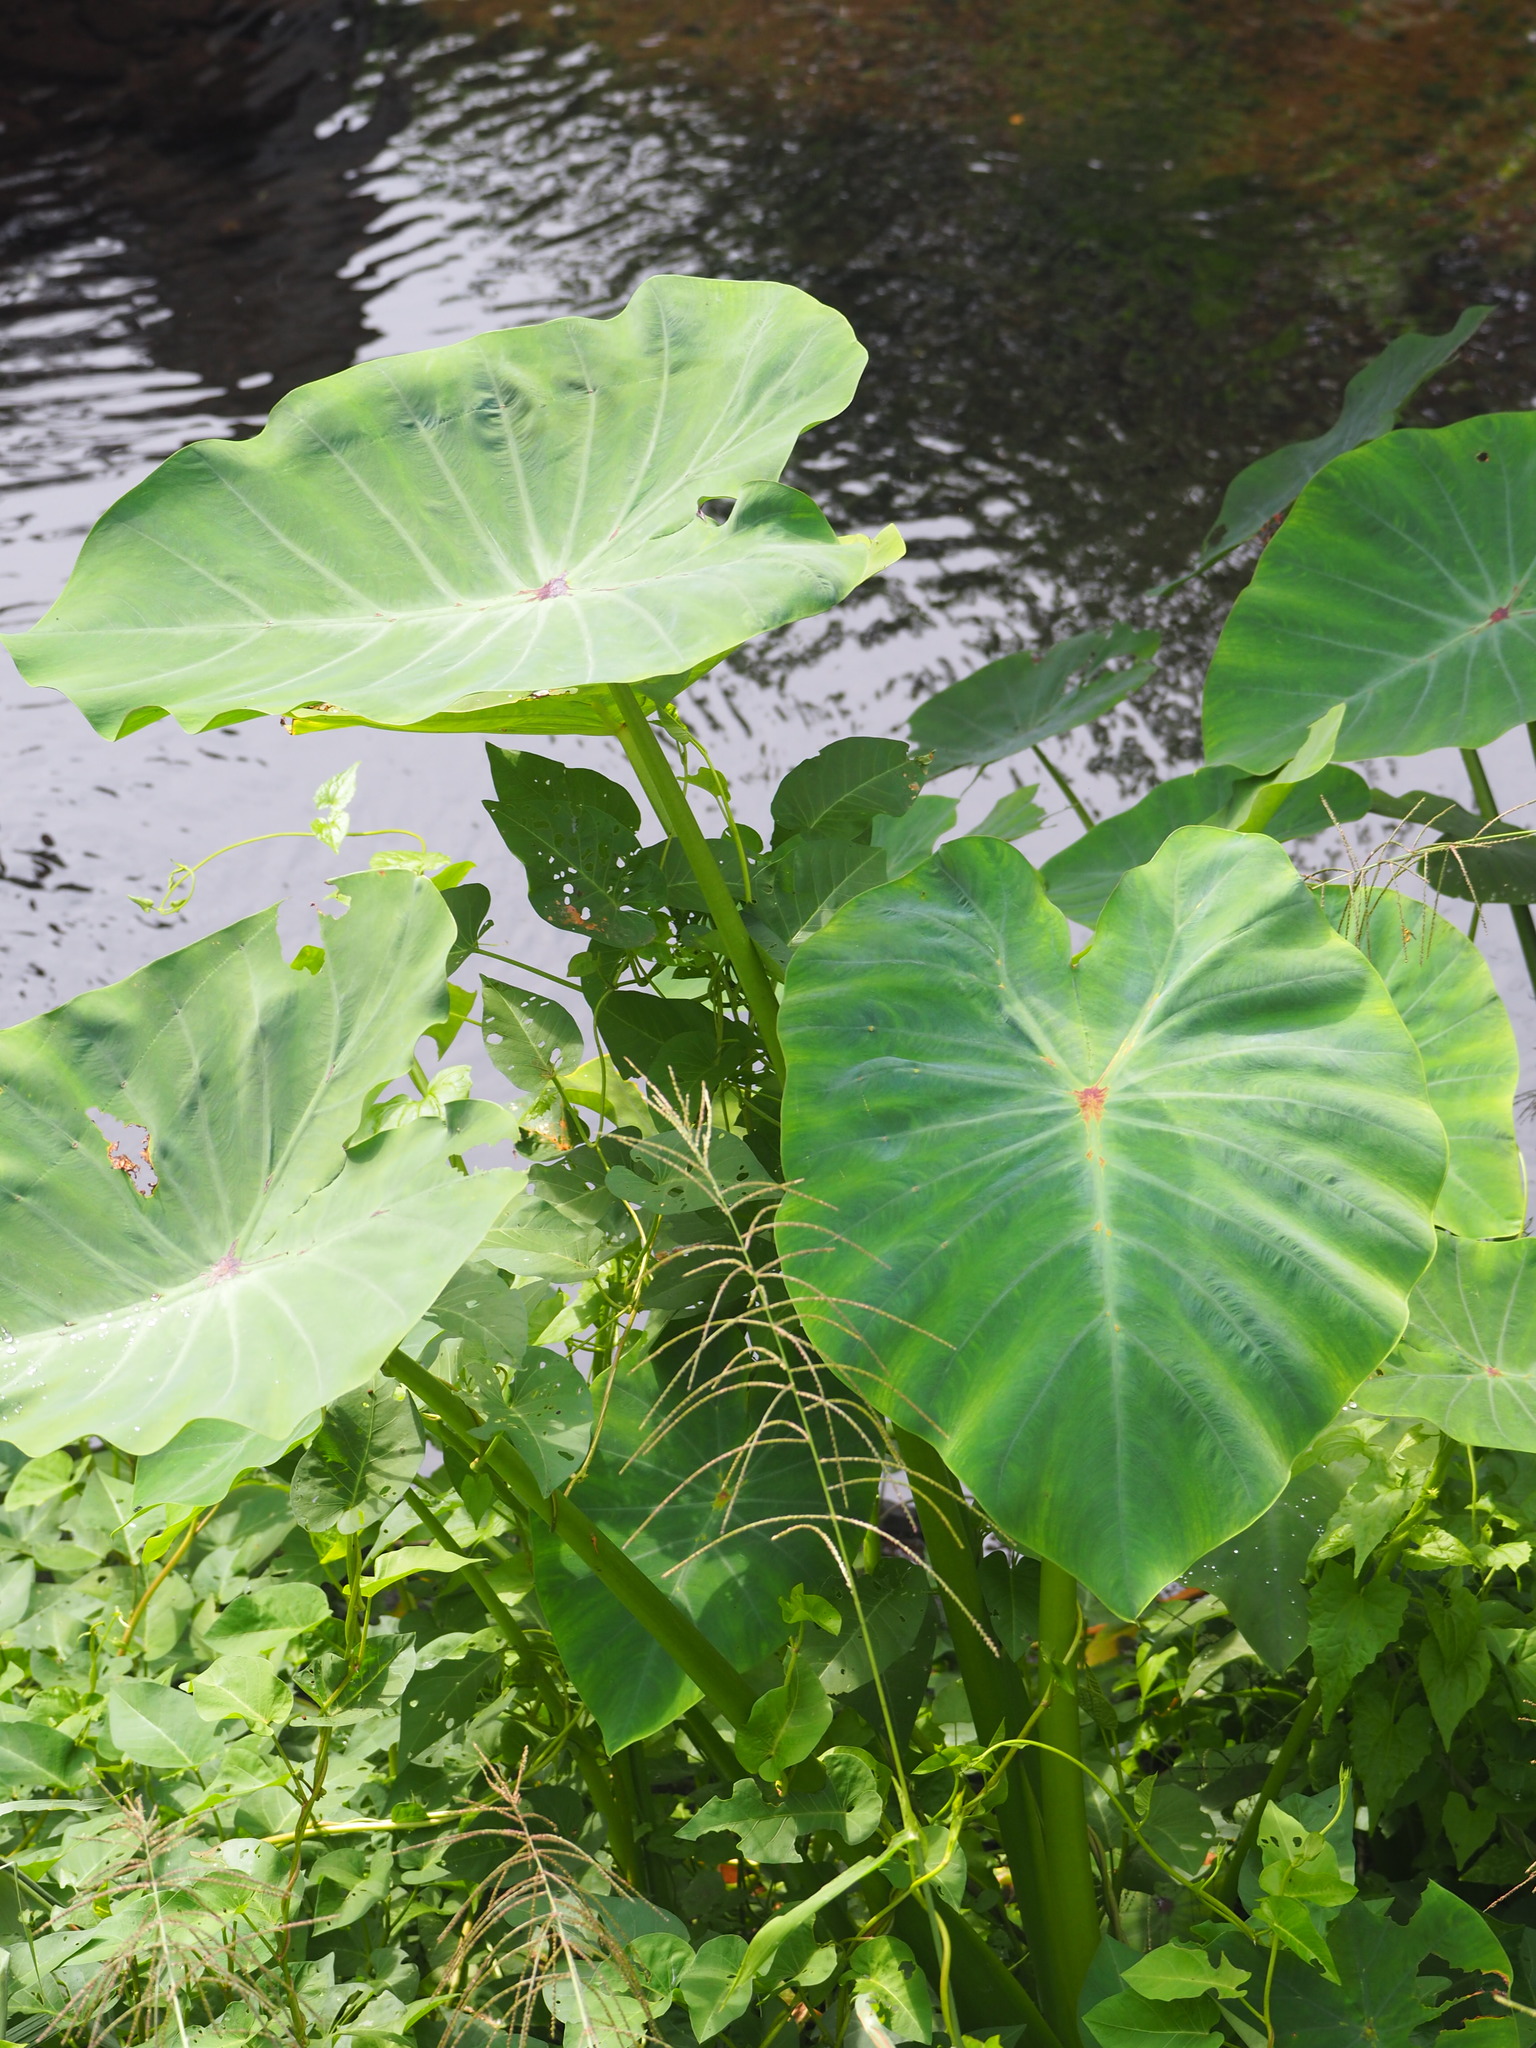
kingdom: Plantae
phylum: Tracheophyta
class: Liliopsida
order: Alismatales
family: Araceae
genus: Colocasia
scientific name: Colocasia esculenta
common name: Taro
